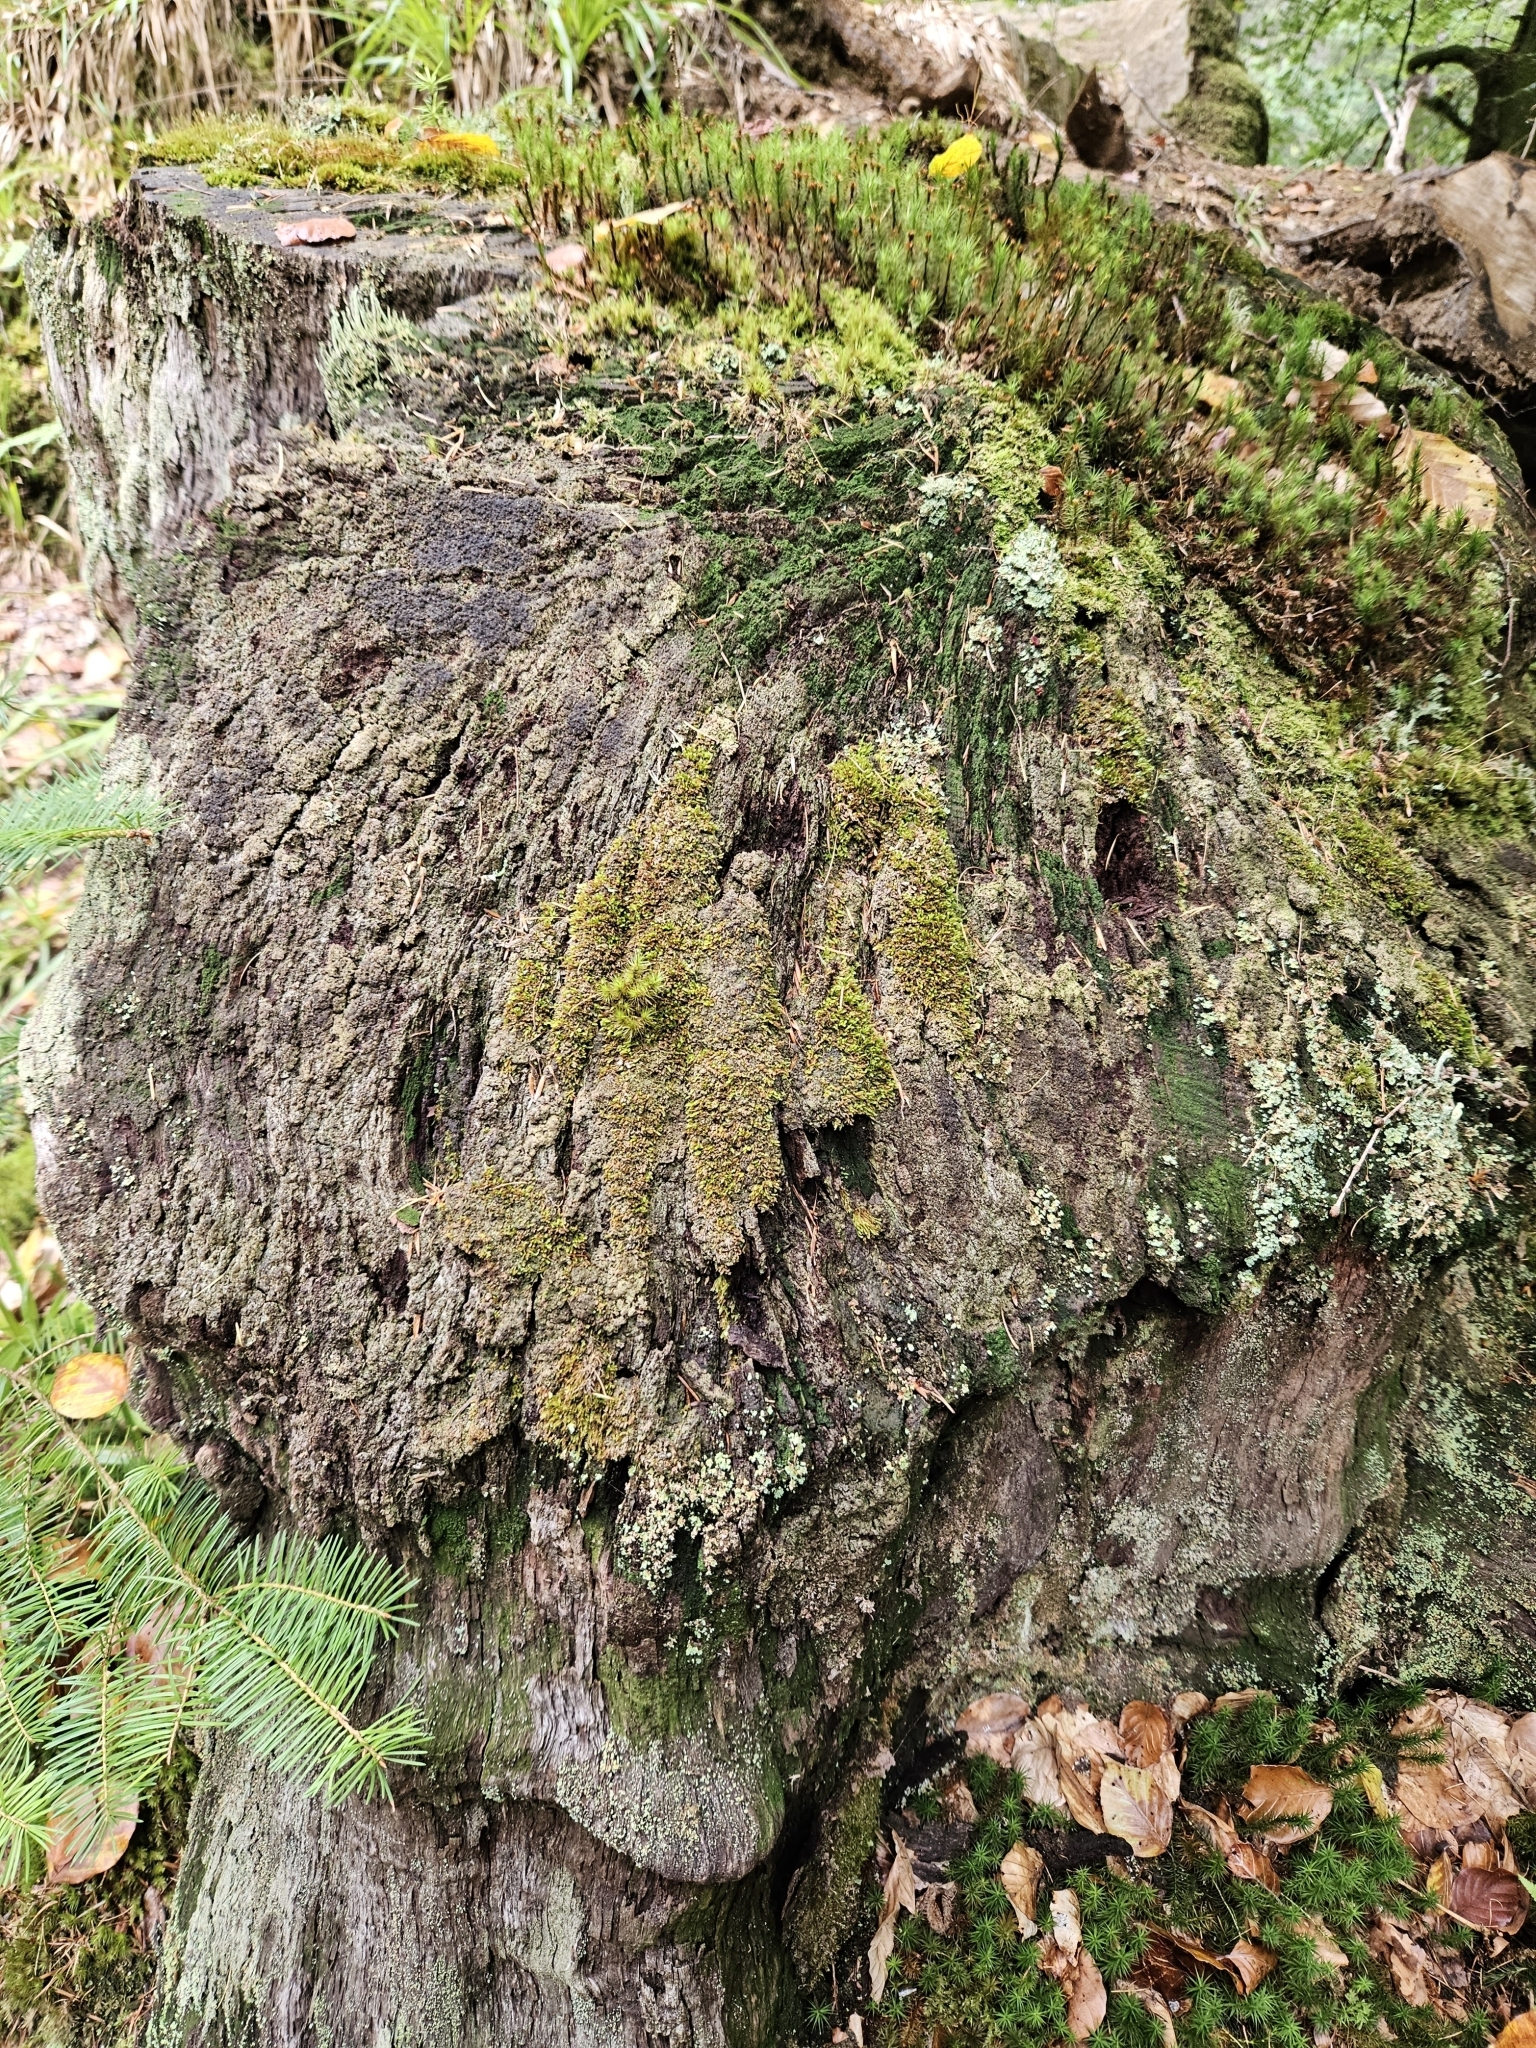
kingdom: Plantae
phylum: Bryophyta
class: Polytrichopsida
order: Tetraphidales
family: Tetraphidaceae
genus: Tetraphis
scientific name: Tetraphis pellucida
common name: Common four-toothed moss
